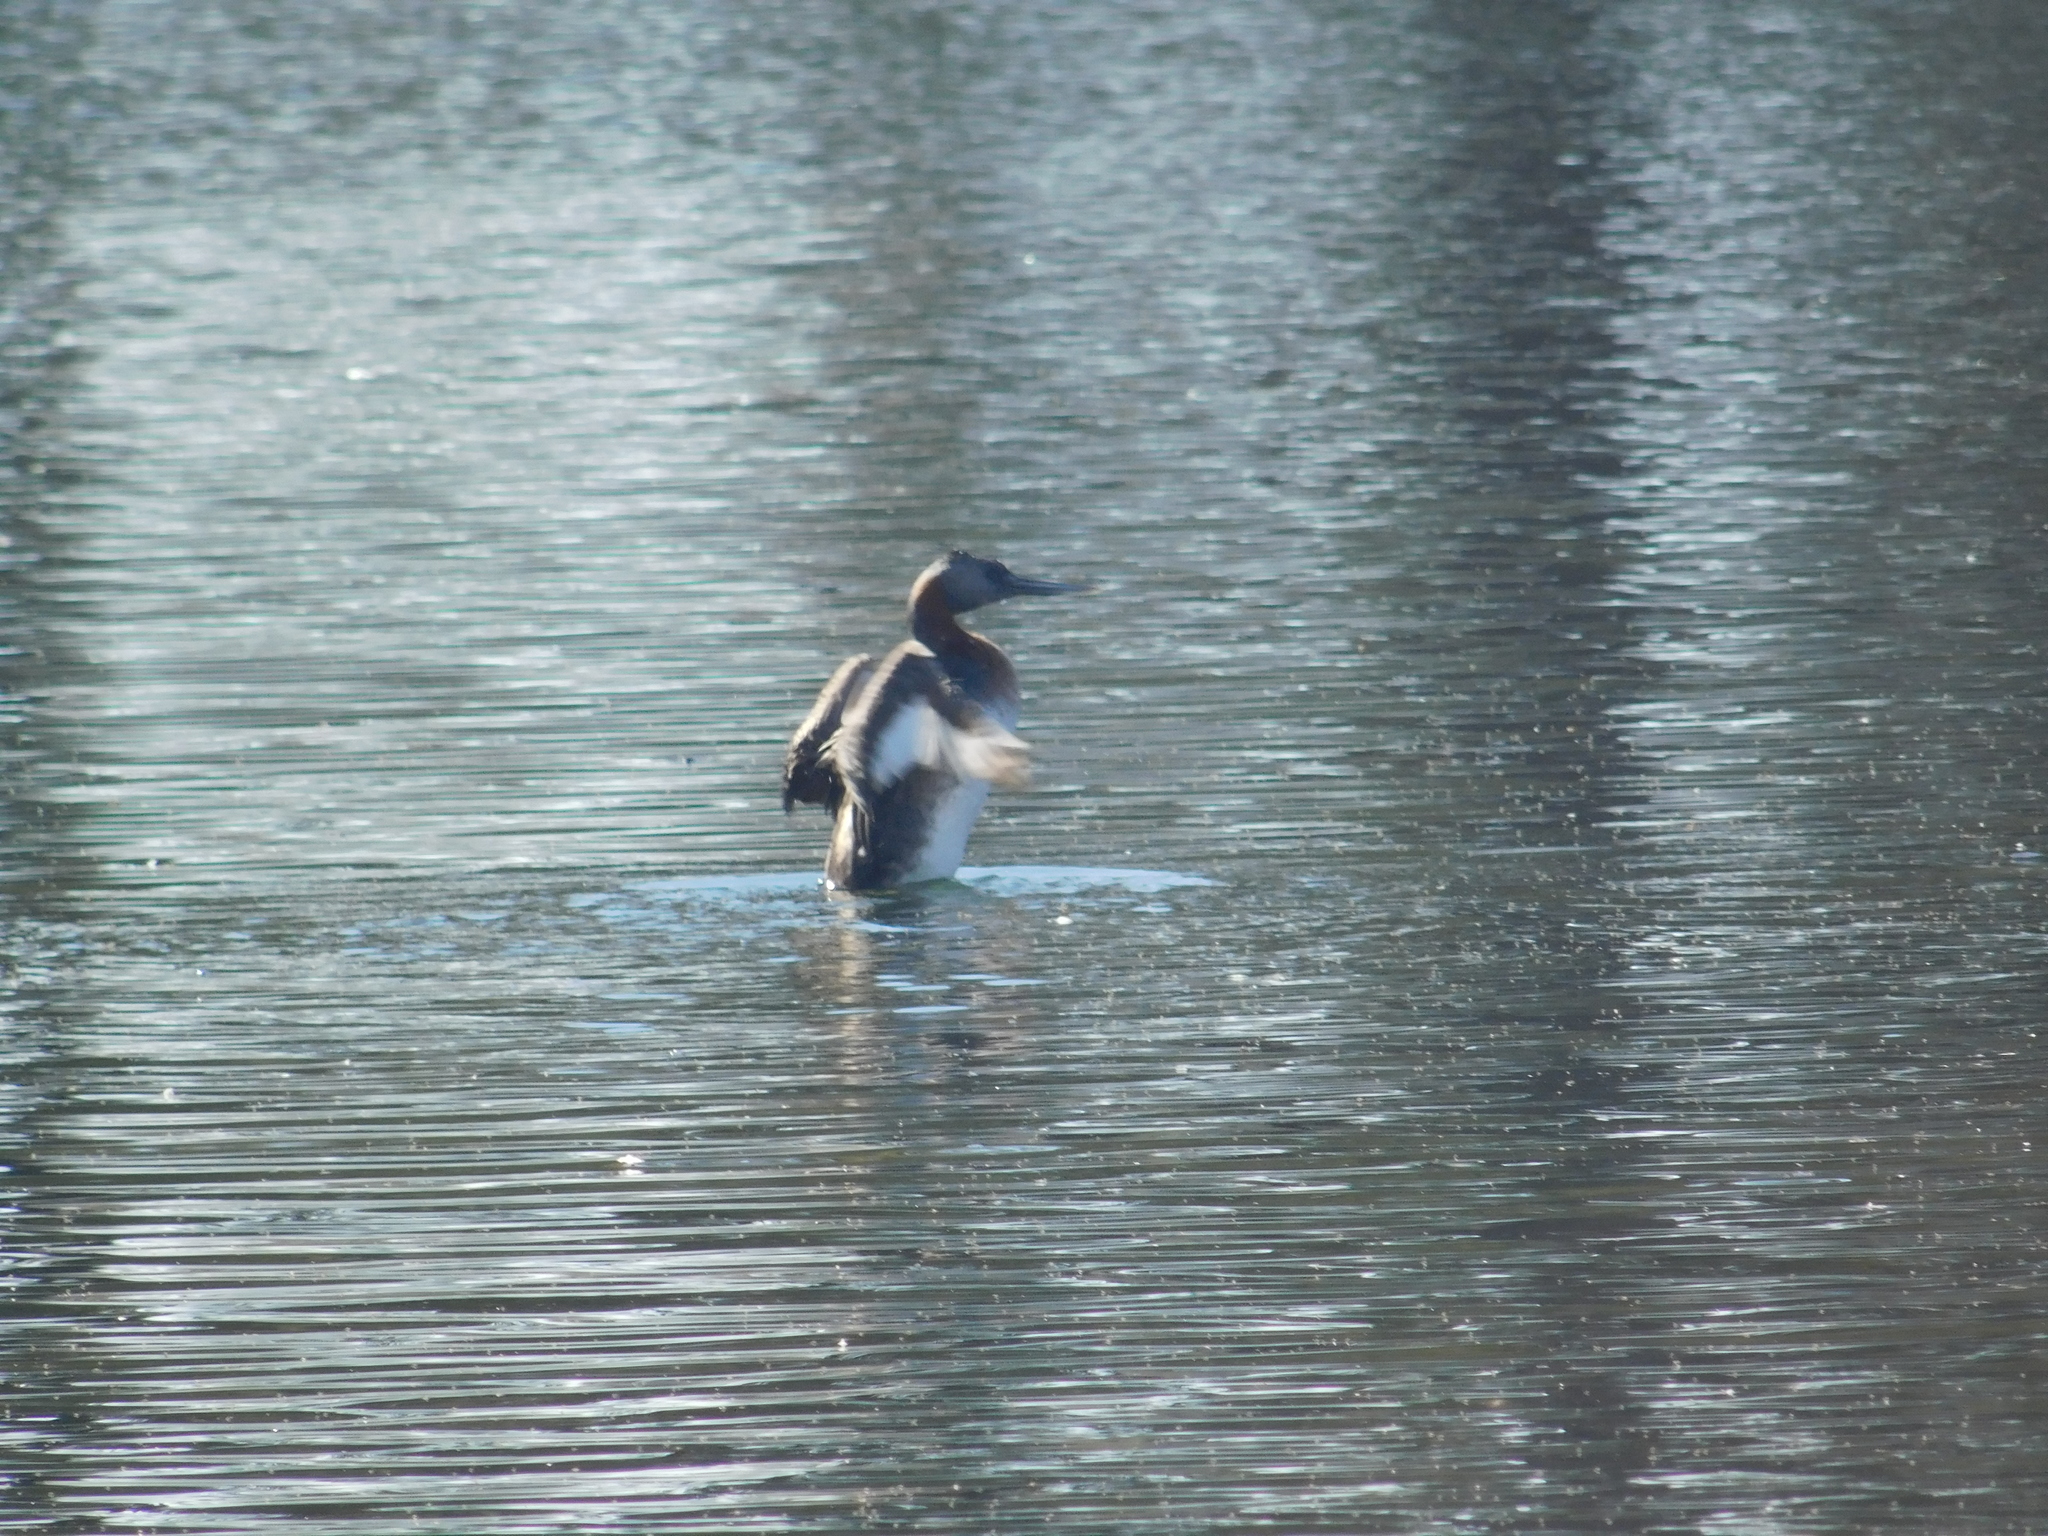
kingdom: Animalia
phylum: Chordata
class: Aves
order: Podicipediformes
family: Podicipedidae
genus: Podiceps
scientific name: Podiceps major
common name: Great grebe
